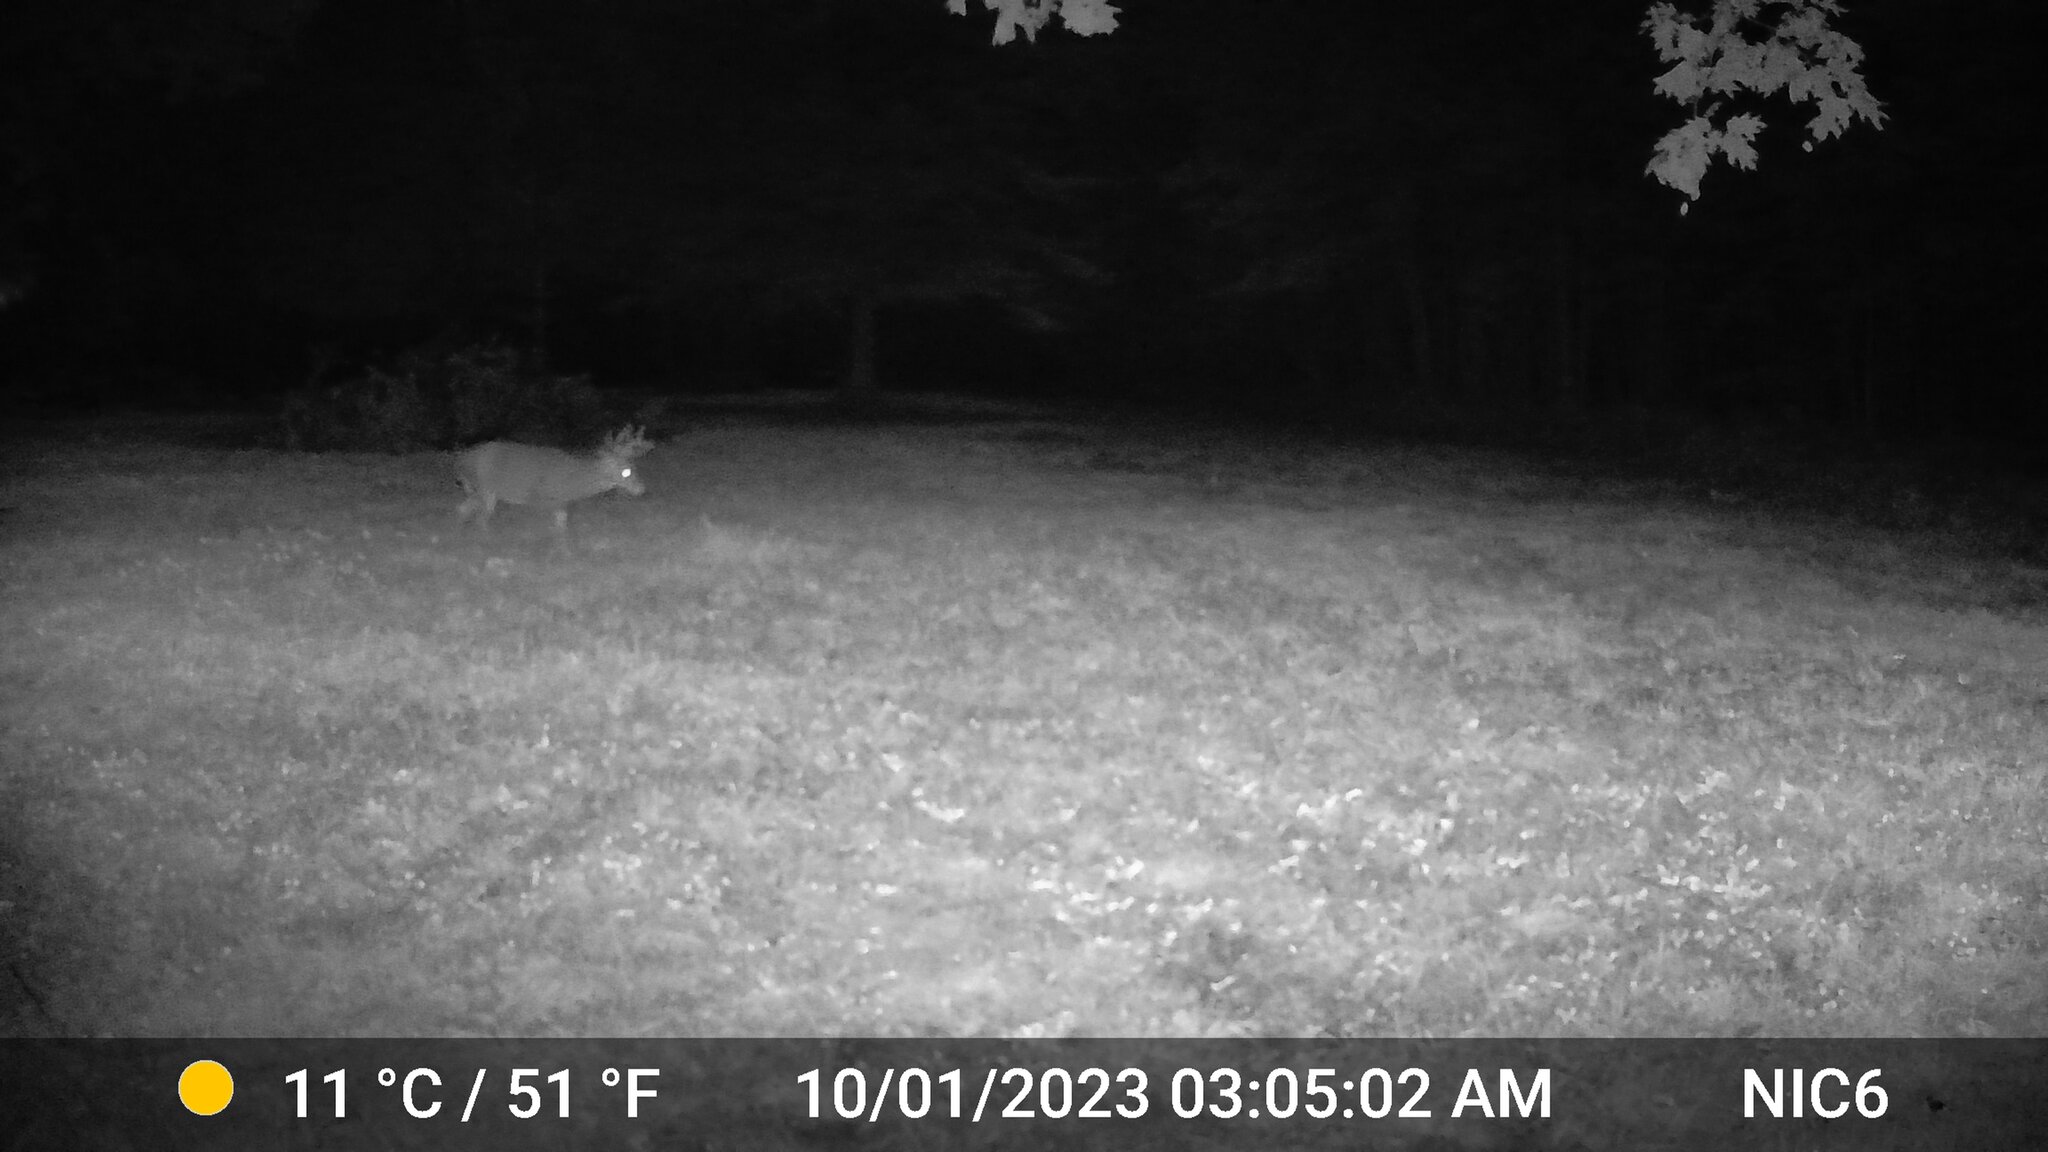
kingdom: Animalia
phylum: Chordata
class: Mammalia
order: Artiodactyla
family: Cervidae
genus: Odocoileus
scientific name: Odocoileus virginianus
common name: White-tailed deer
